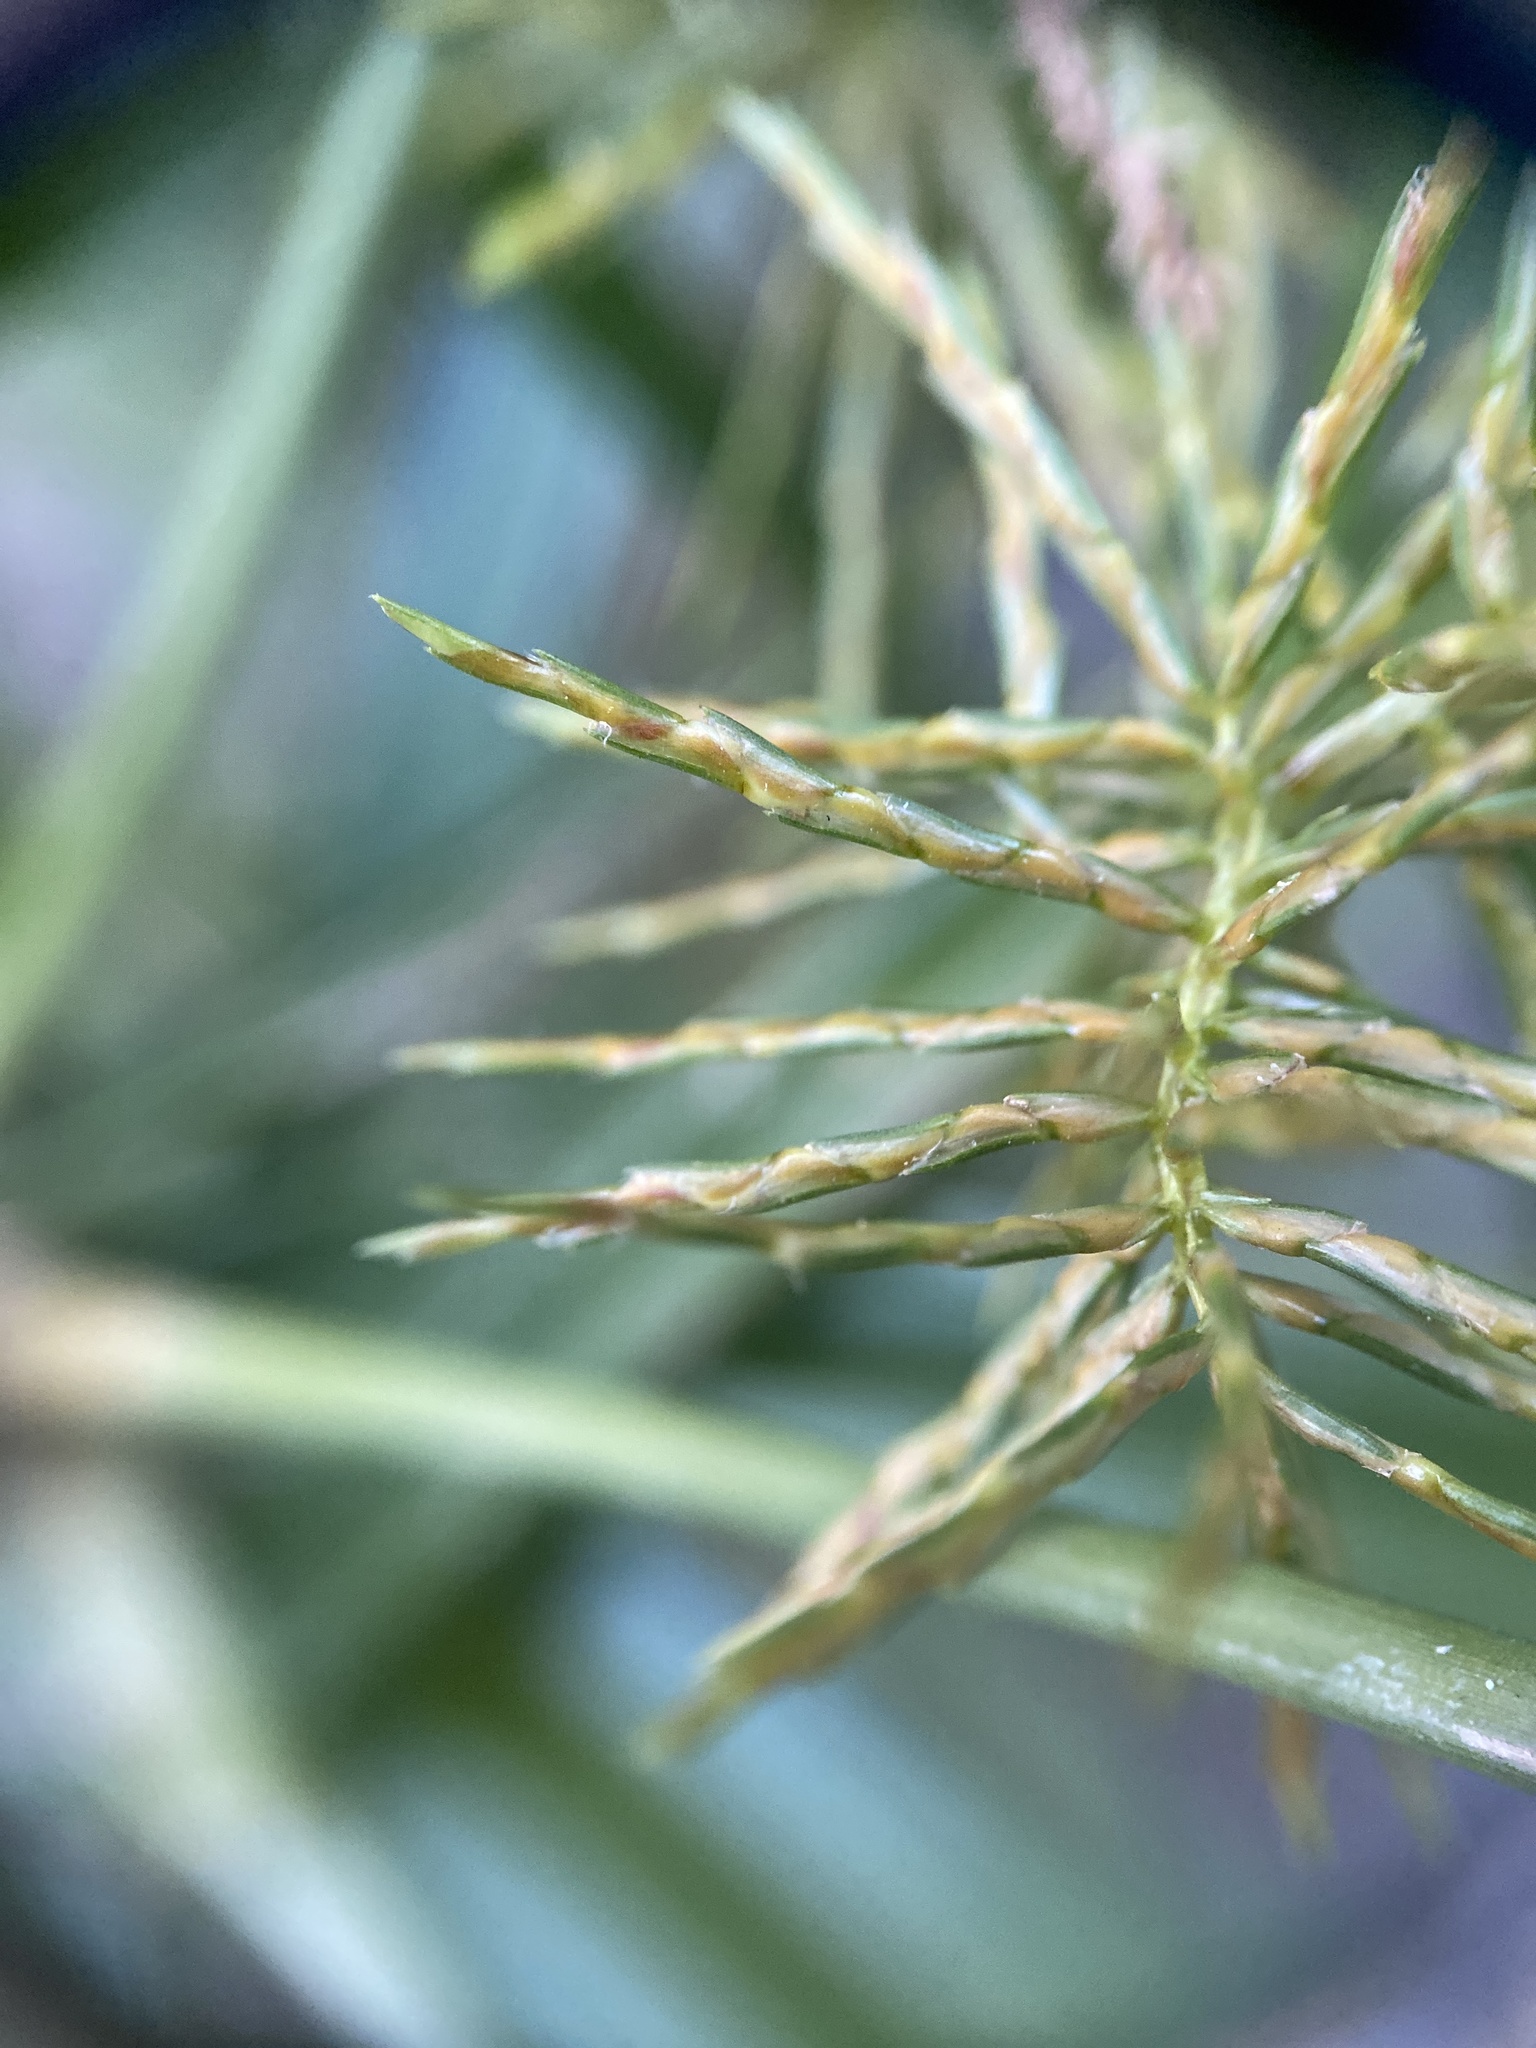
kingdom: Plantae
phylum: Tracheophyta
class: Liliopsida
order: Poales
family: Cyperaceae
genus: Cyperus
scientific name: Cyperus odoratus
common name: Fragrant flatsedge
